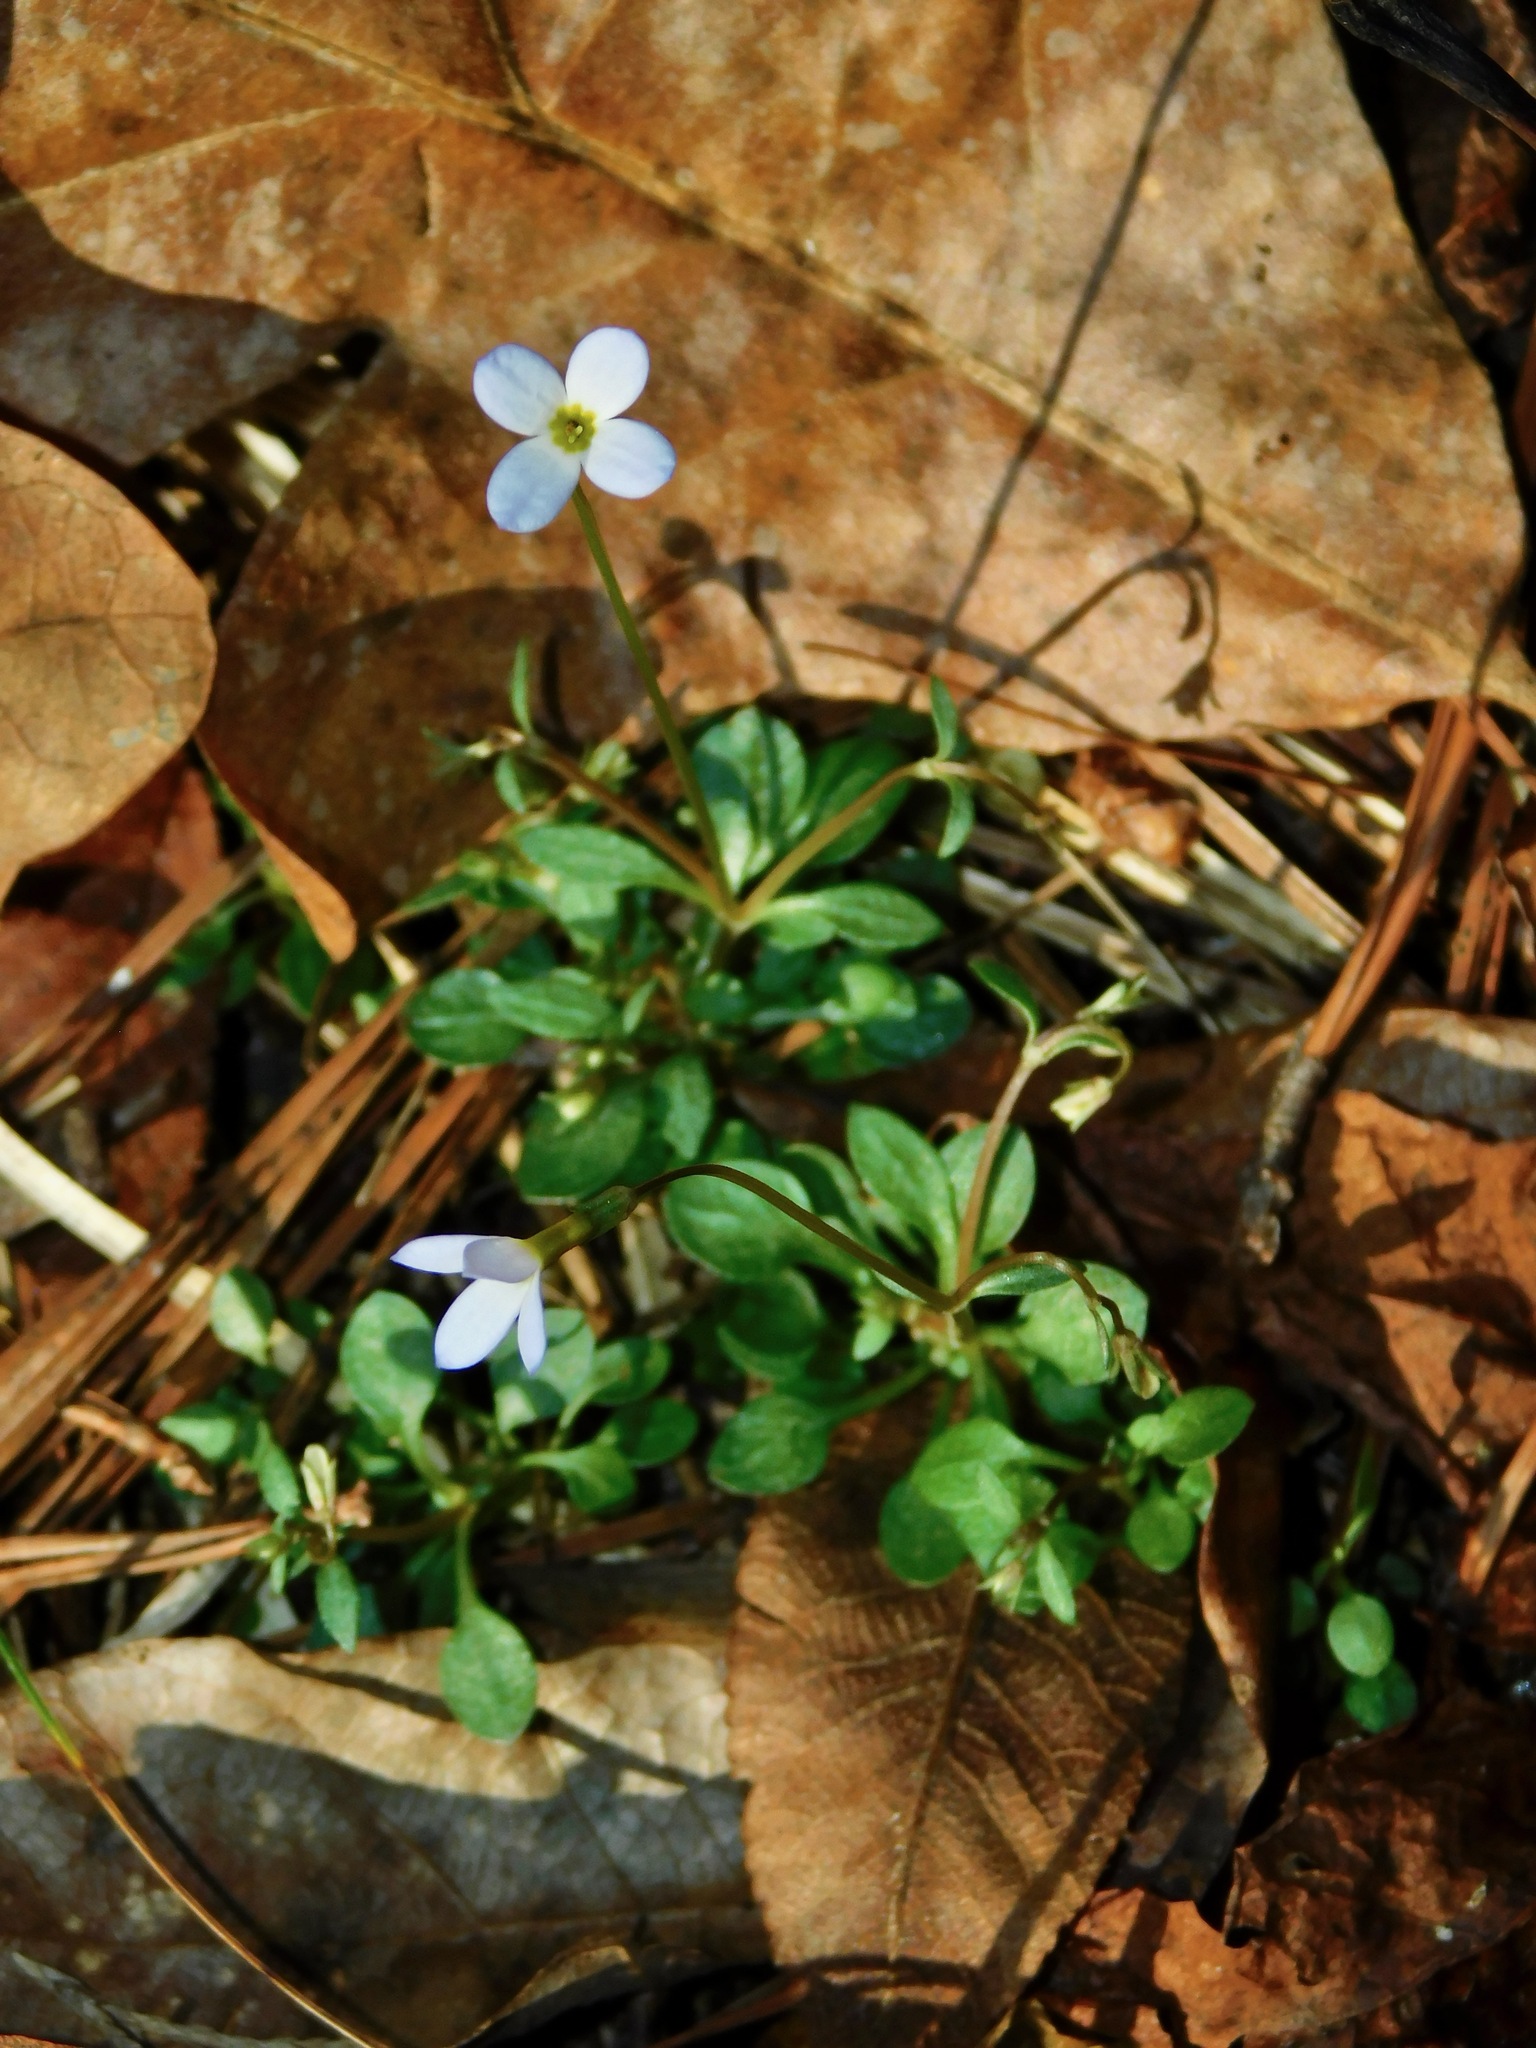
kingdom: Plantae
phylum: Tracheophyta
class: Magnoliopsida
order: Gentianales
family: Rubiaceae
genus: Houstonia
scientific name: Houstonia caerulea
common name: Bluets
